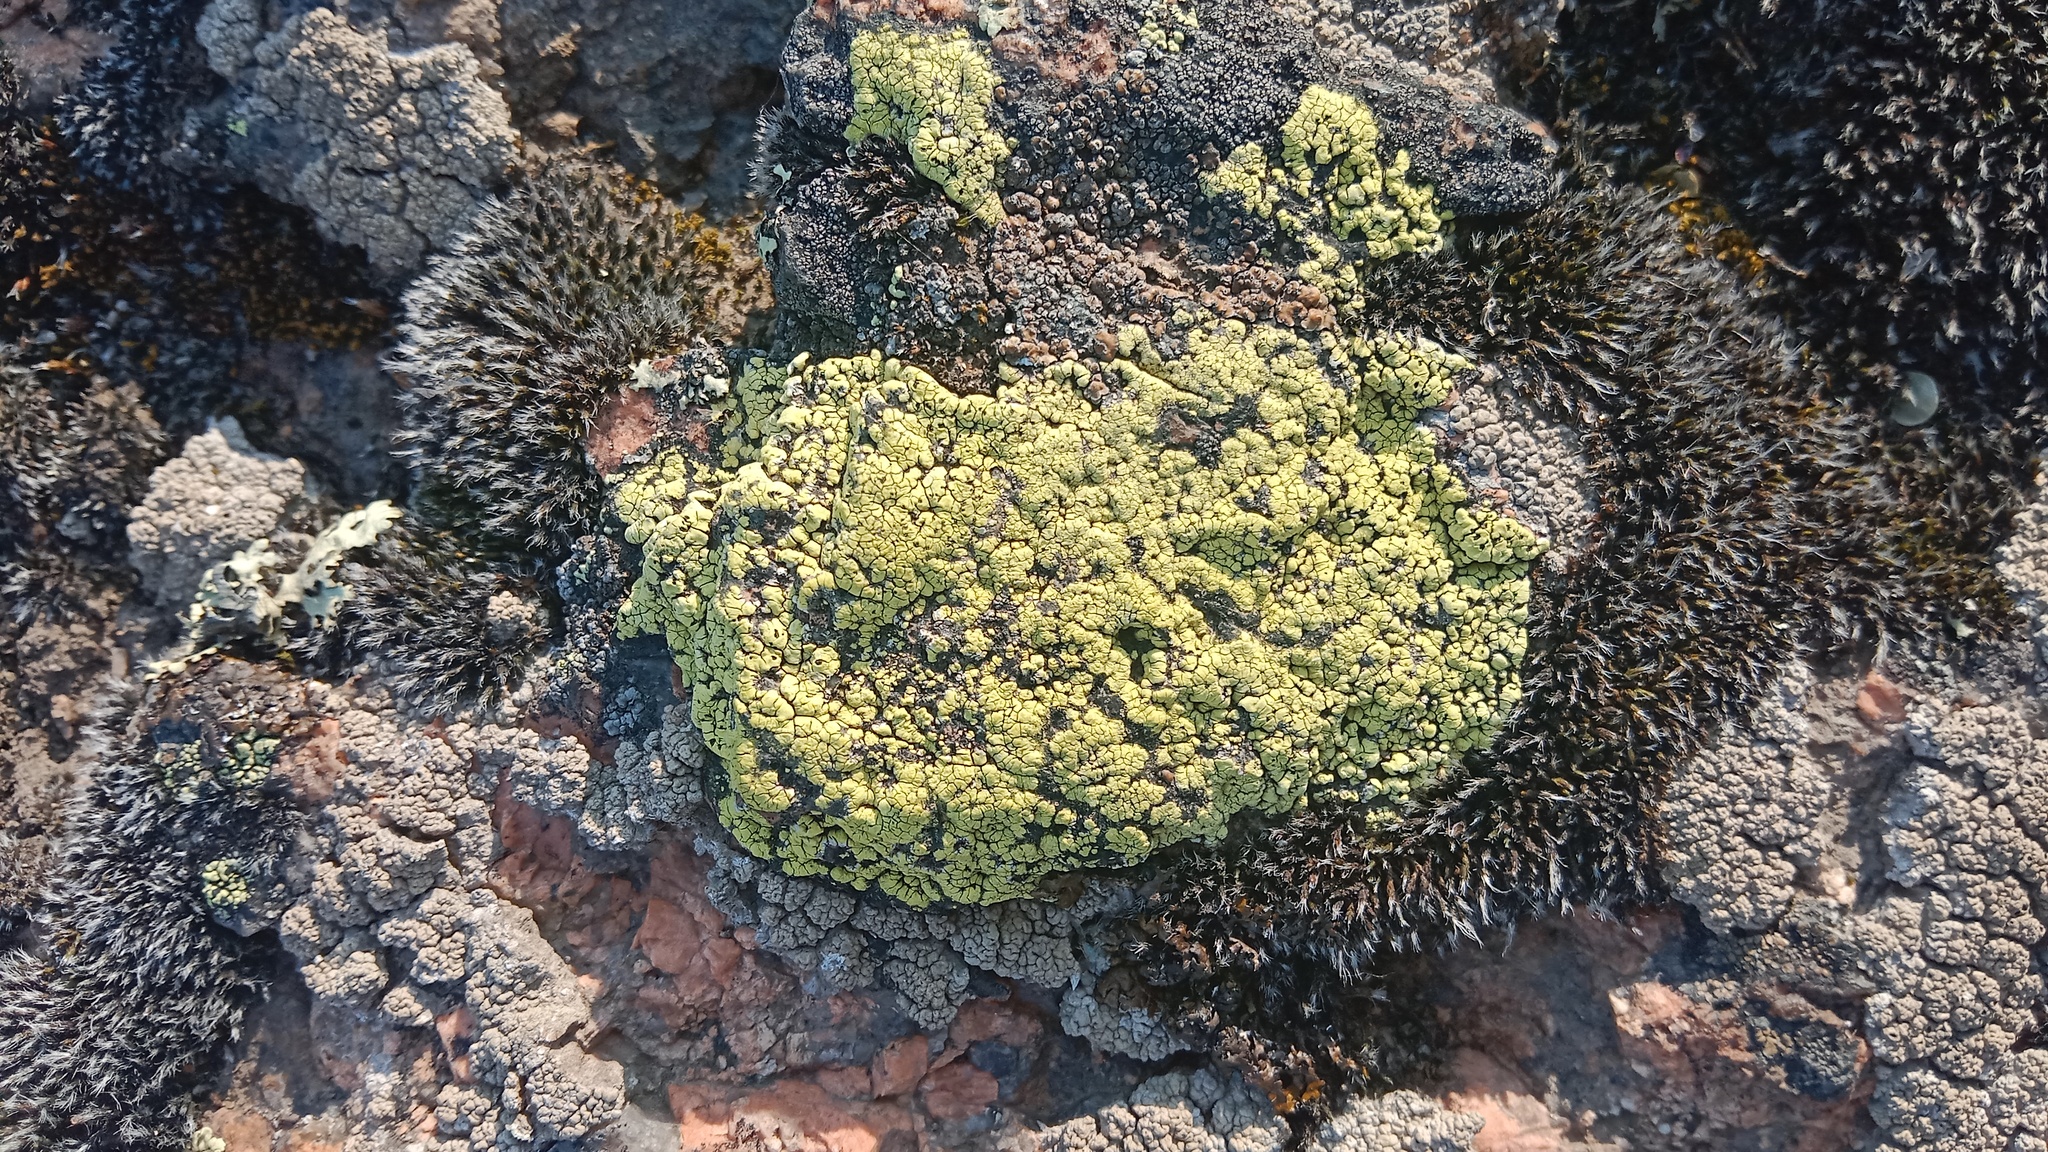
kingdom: Fungi
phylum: Ascomycota
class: Lecanoromycetes
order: Rhizocarpales
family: Rhizocarpaceae
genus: Rhizocarpon
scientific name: Rhizocarpon geographicum
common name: Yellow map lichen
